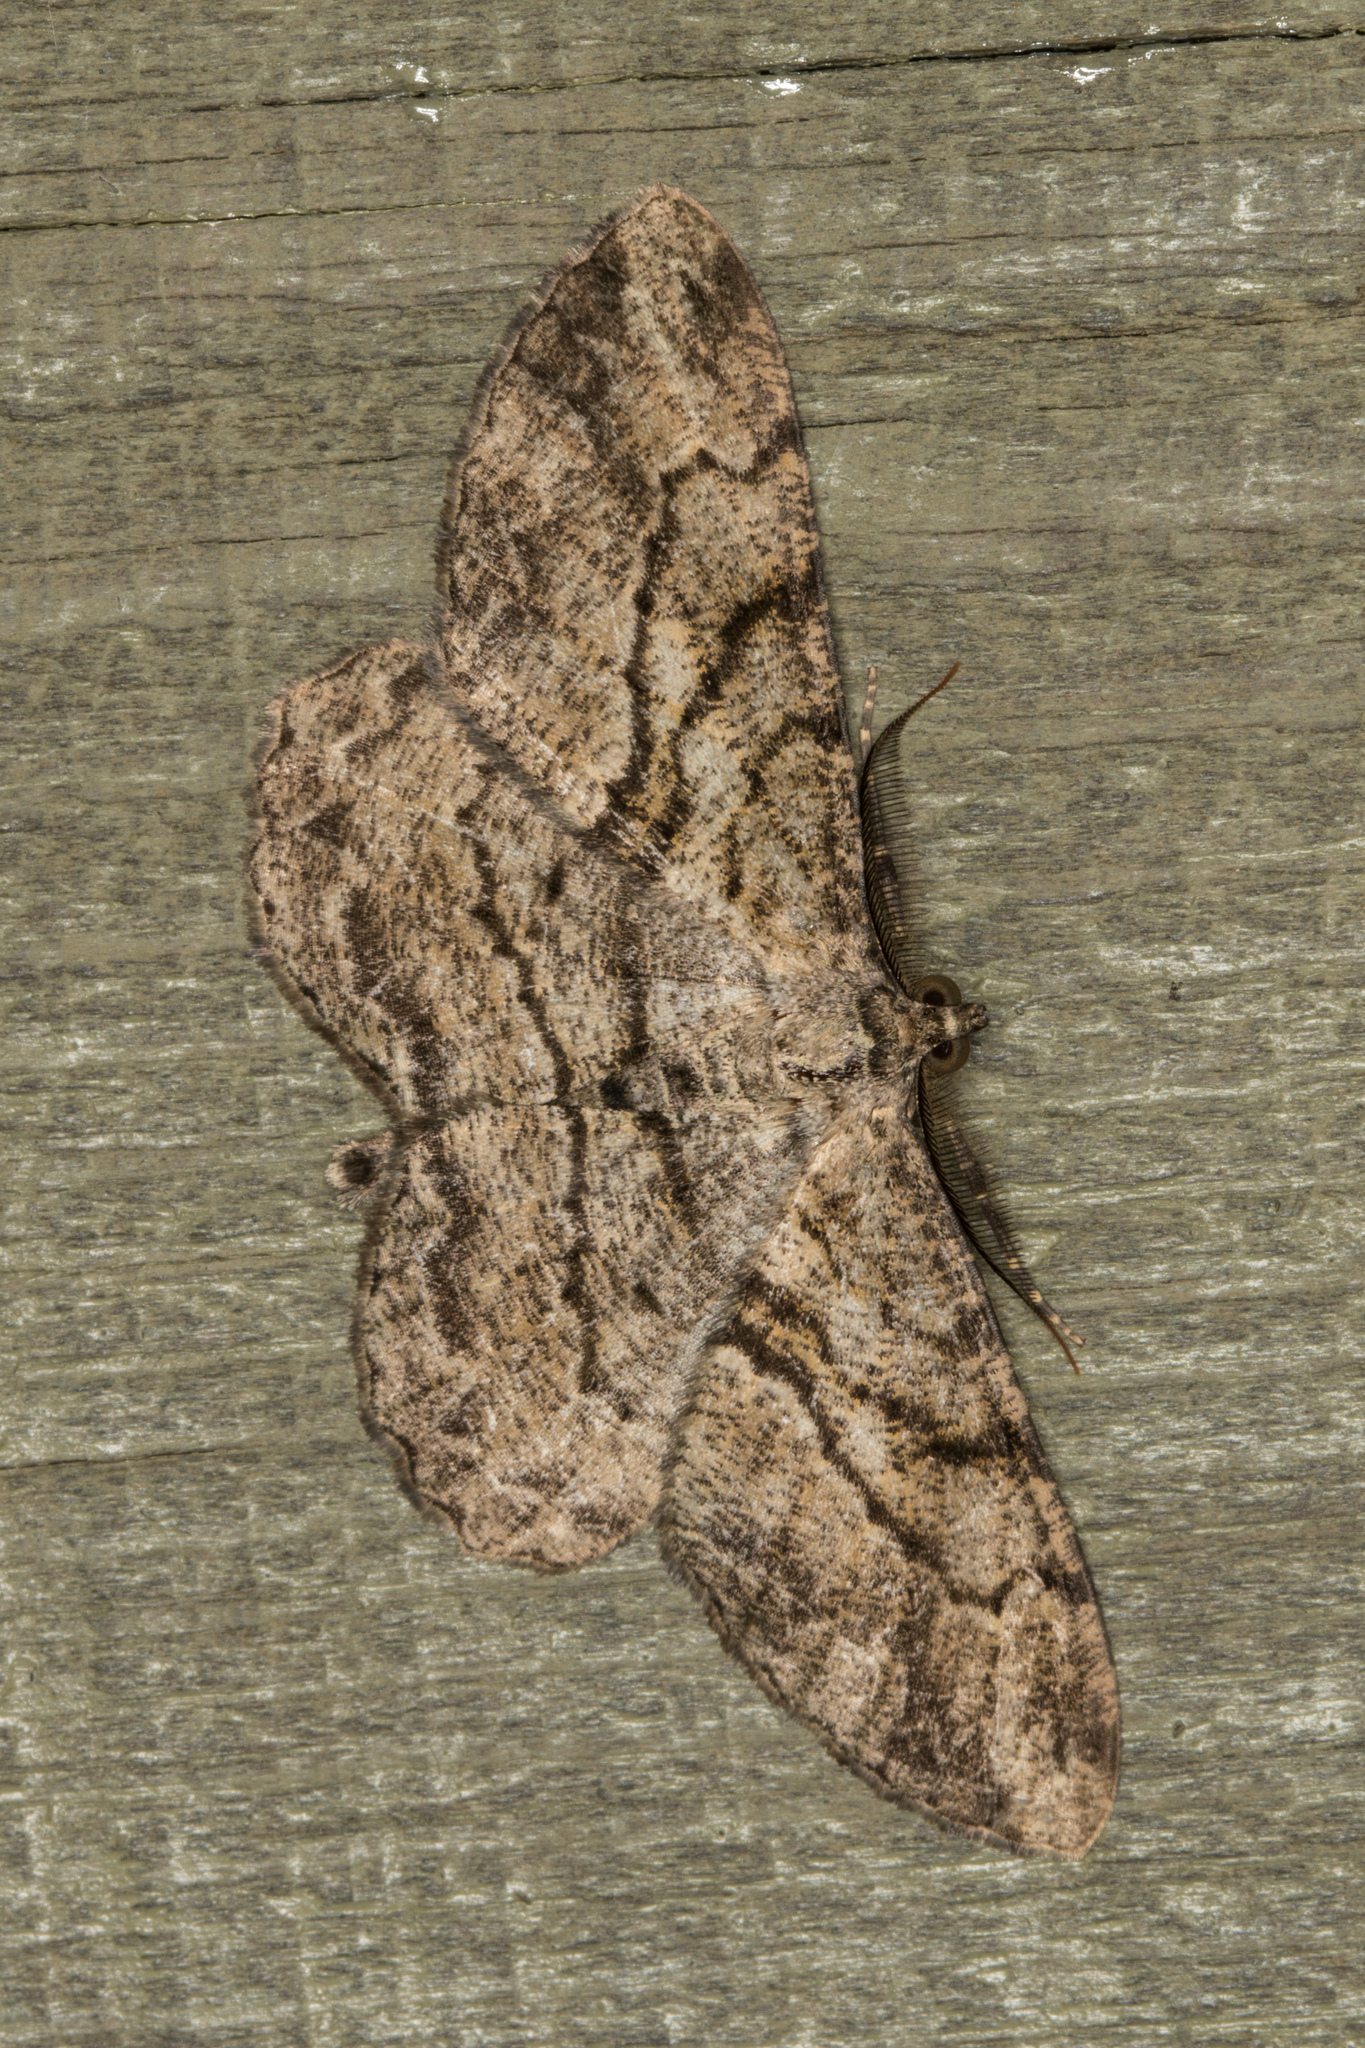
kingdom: Animalia
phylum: Arthropoda
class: Insecta
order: Lepidoptera
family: Geometridae
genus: Peribatodes
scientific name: Peribatodes rhomboidaria
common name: Willow beauty
